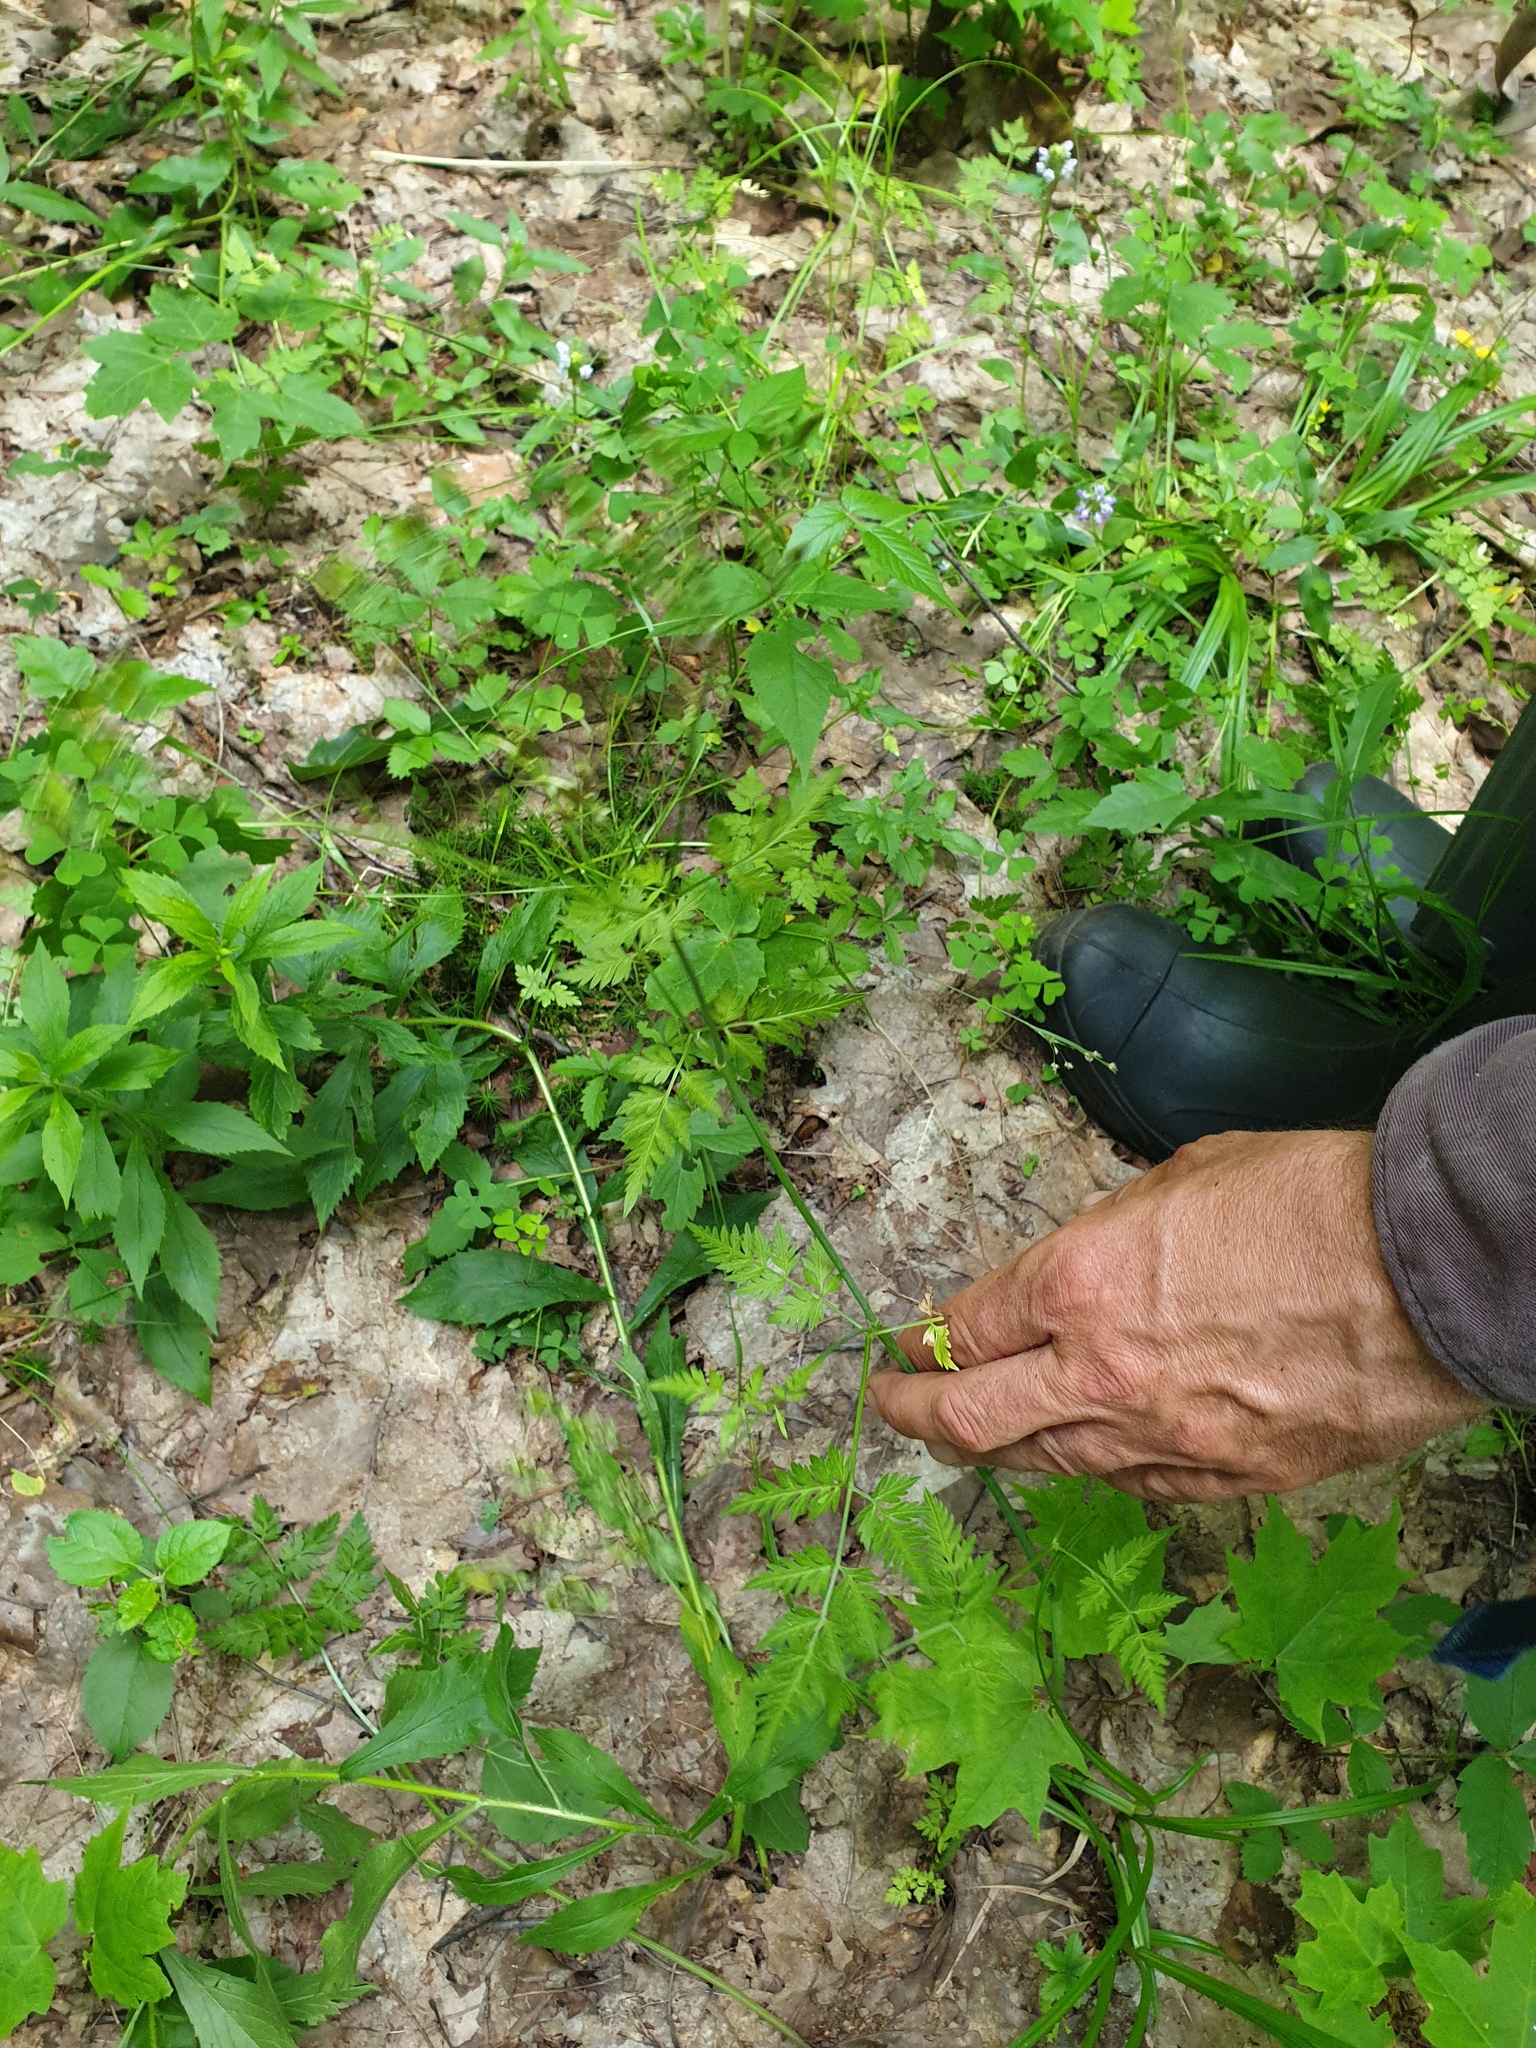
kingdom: Plantae
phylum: Tracheophyta
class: Magnoliopsida
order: Apiales
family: Apiaceae
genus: Anthriscus
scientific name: Anthriscus sylvestris
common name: Cow parsley
